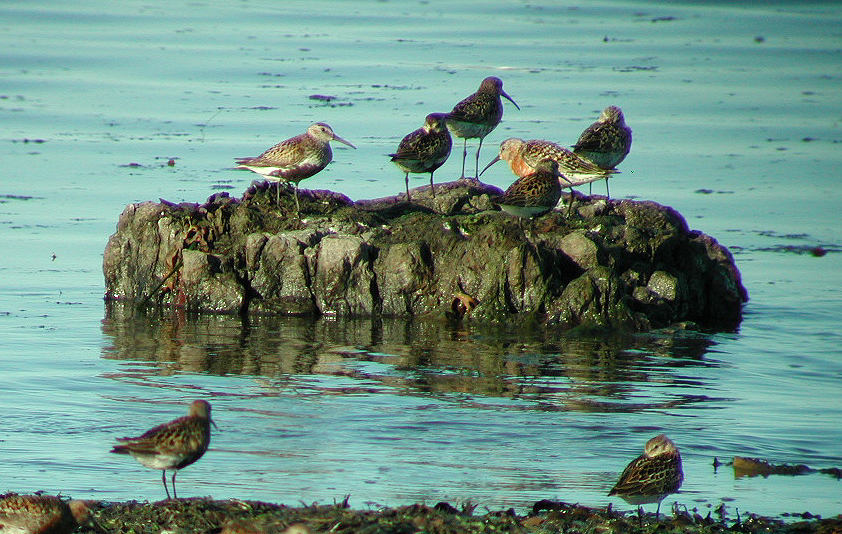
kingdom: Animalia
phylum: Chordata
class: Aves
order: Charadriiformes
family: Scolopacidae
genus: Calidris
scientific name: Calidris alpina
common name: Dunlin
